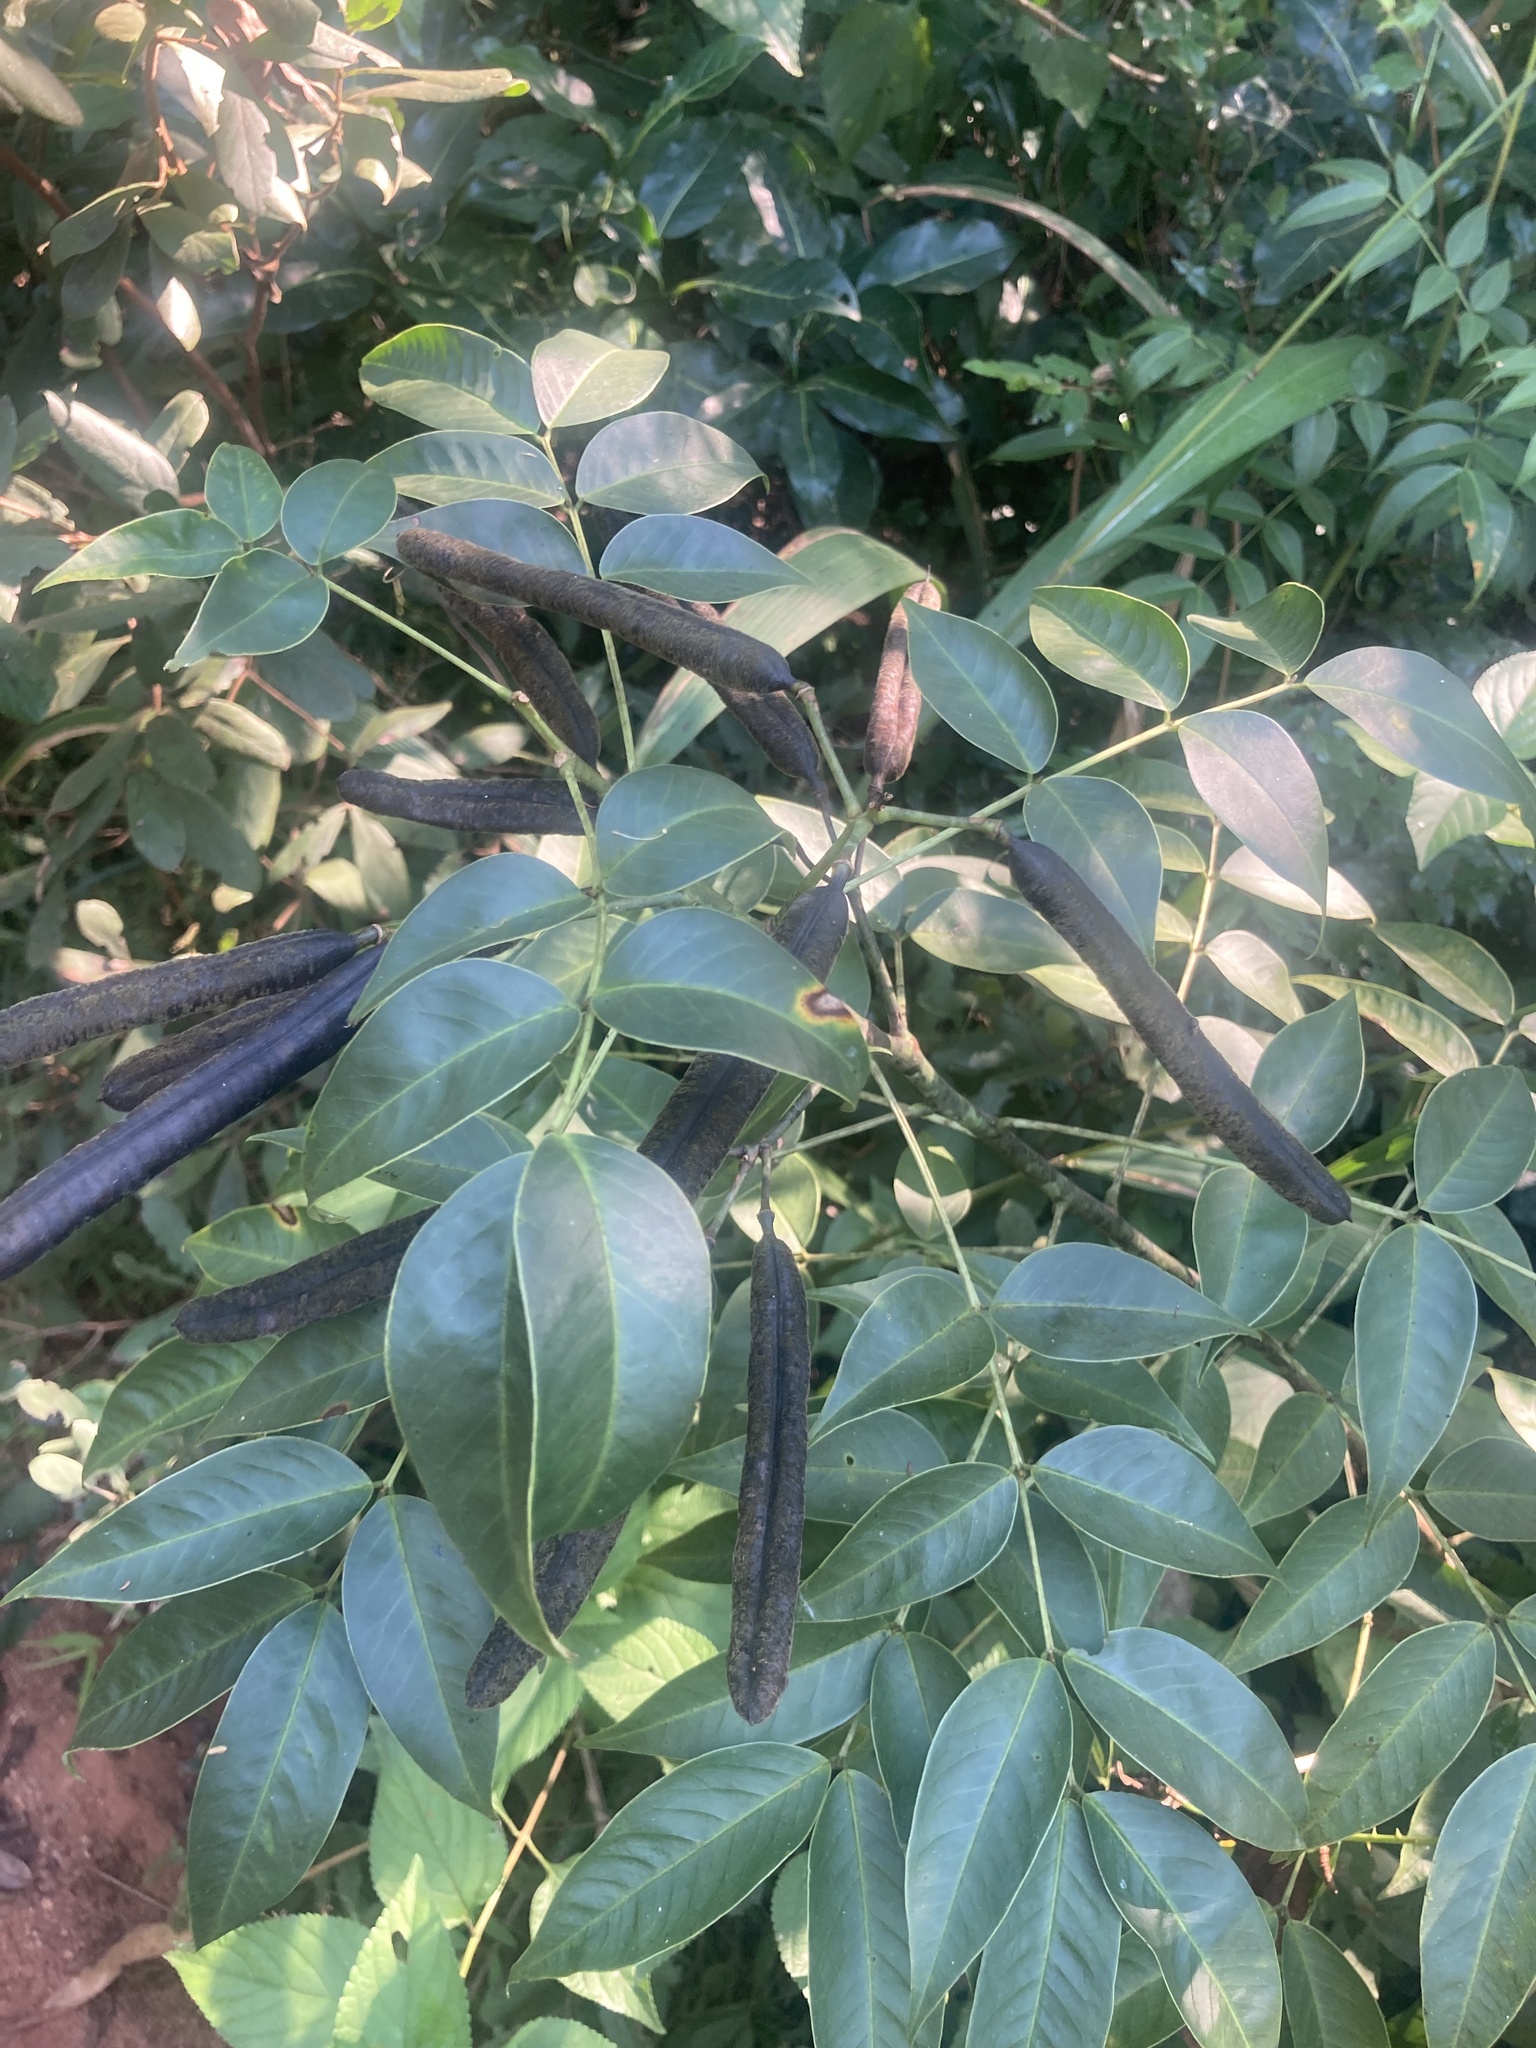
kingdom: Plantae
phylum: Tracheophyta
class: Magnoliopsida
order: Fabales
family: Fabaceae
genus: Senna
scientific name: Senna septemtrionalis
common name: Arsenic bush
